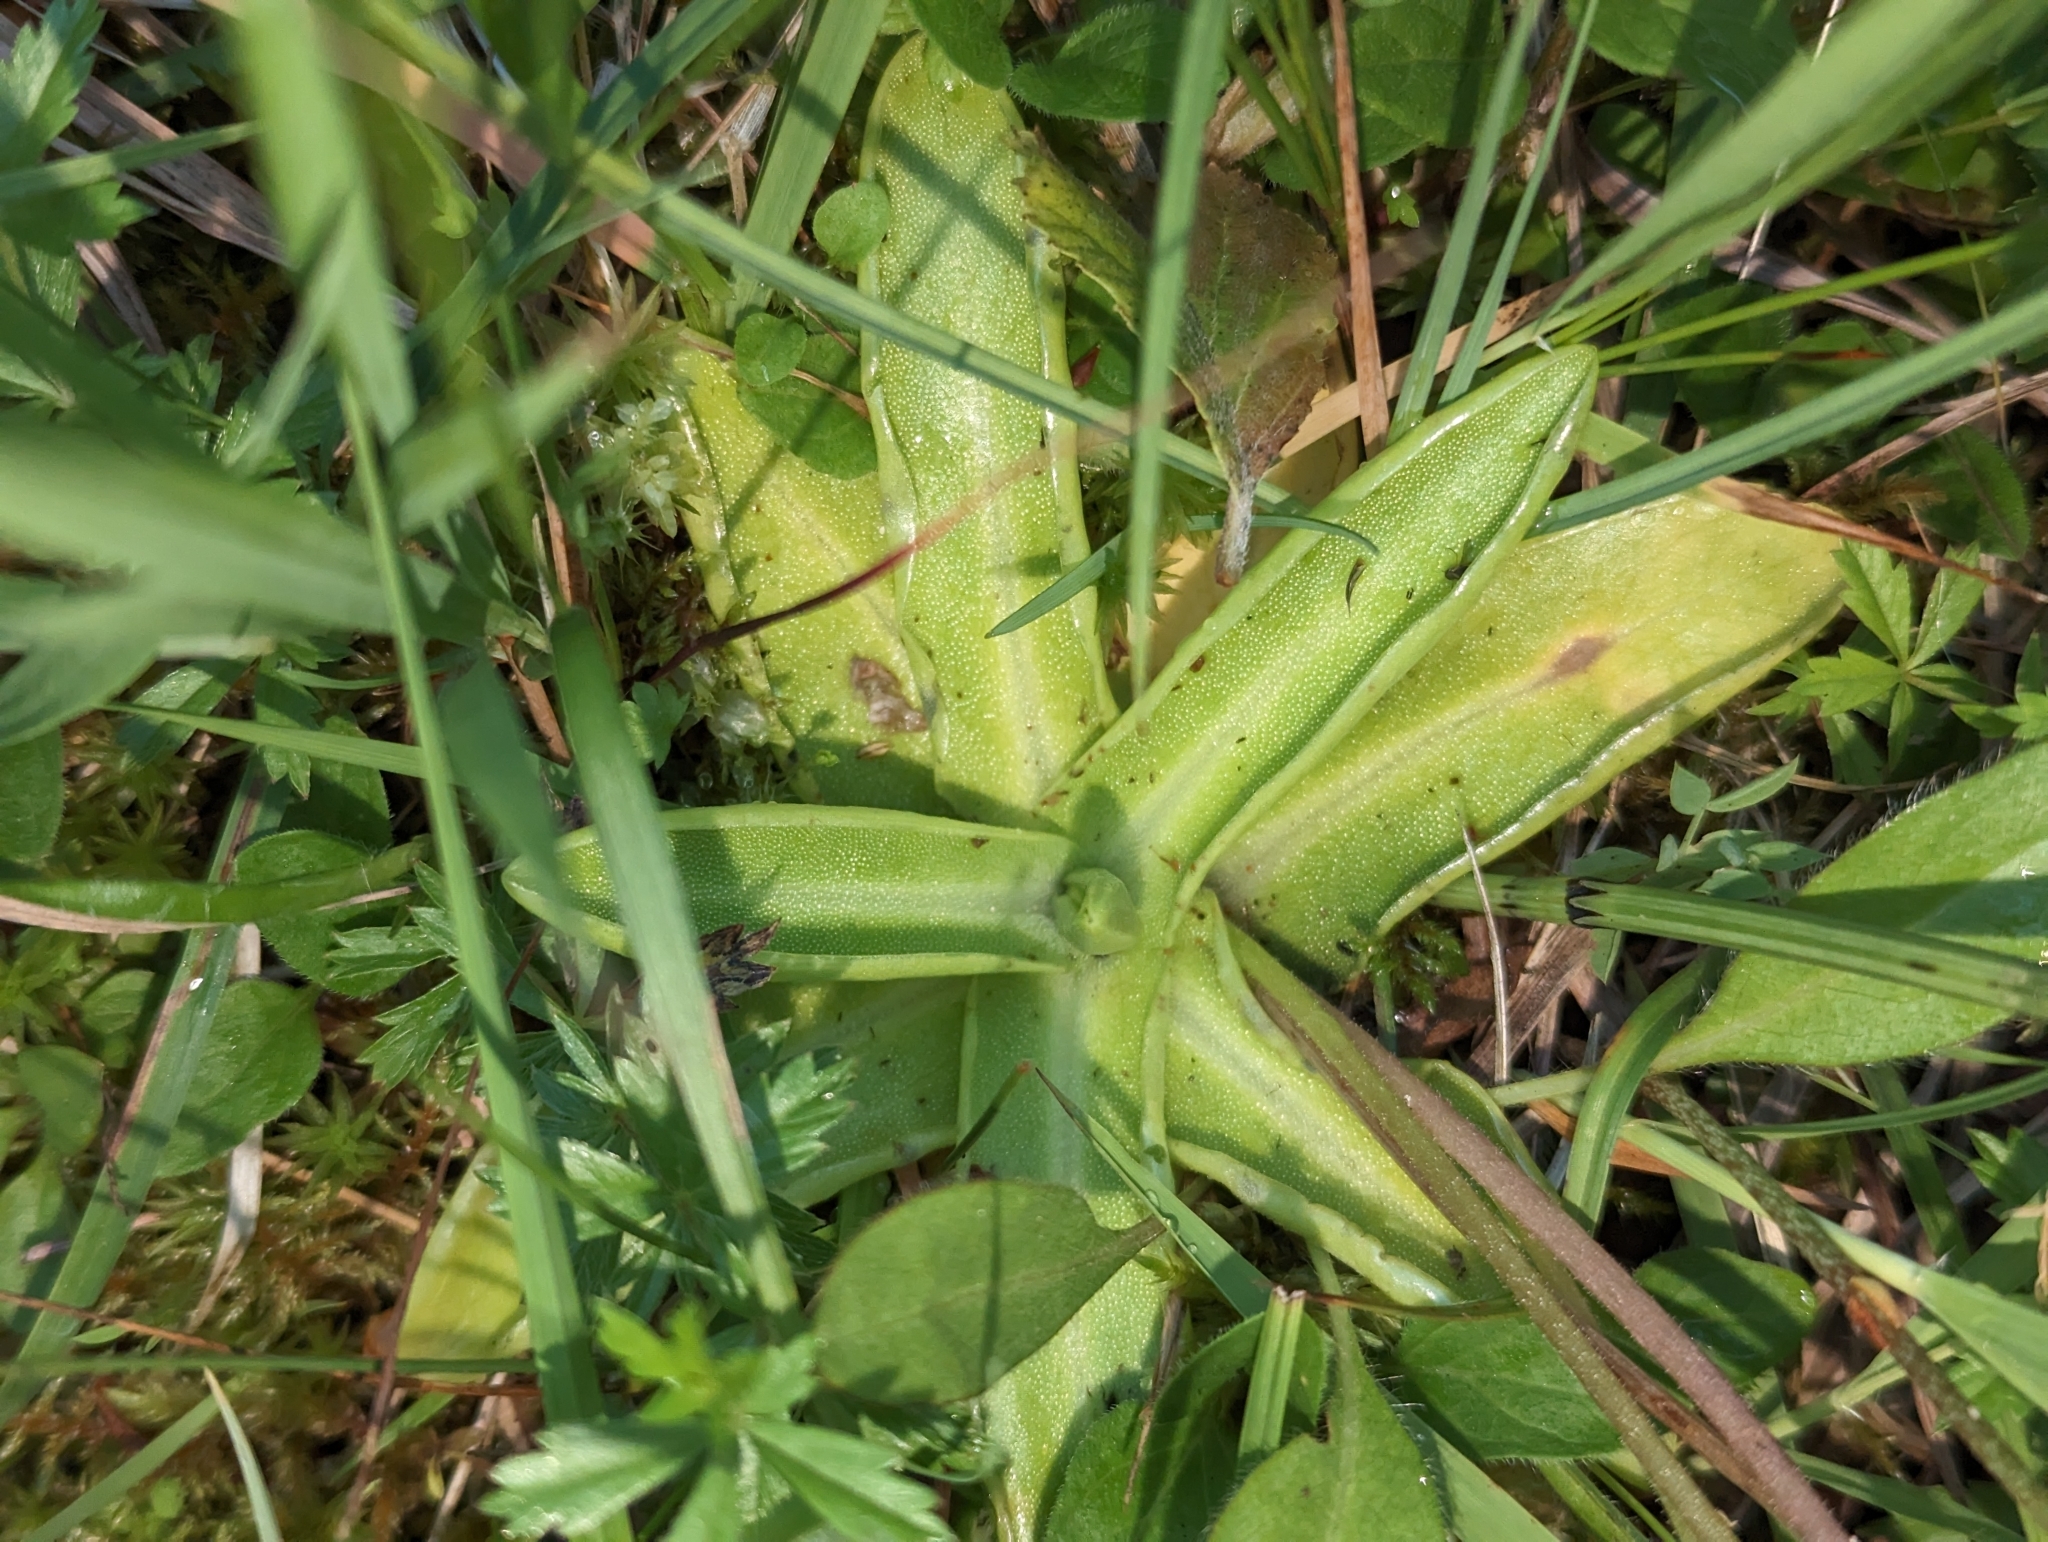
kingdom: Plantae
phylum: Tracheophyta
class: Magnoliopsida
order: Lamiales
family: Lentibulariaceae
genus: Pinguicula
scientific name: Pinguicula vulgaris
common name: Common butterwort
